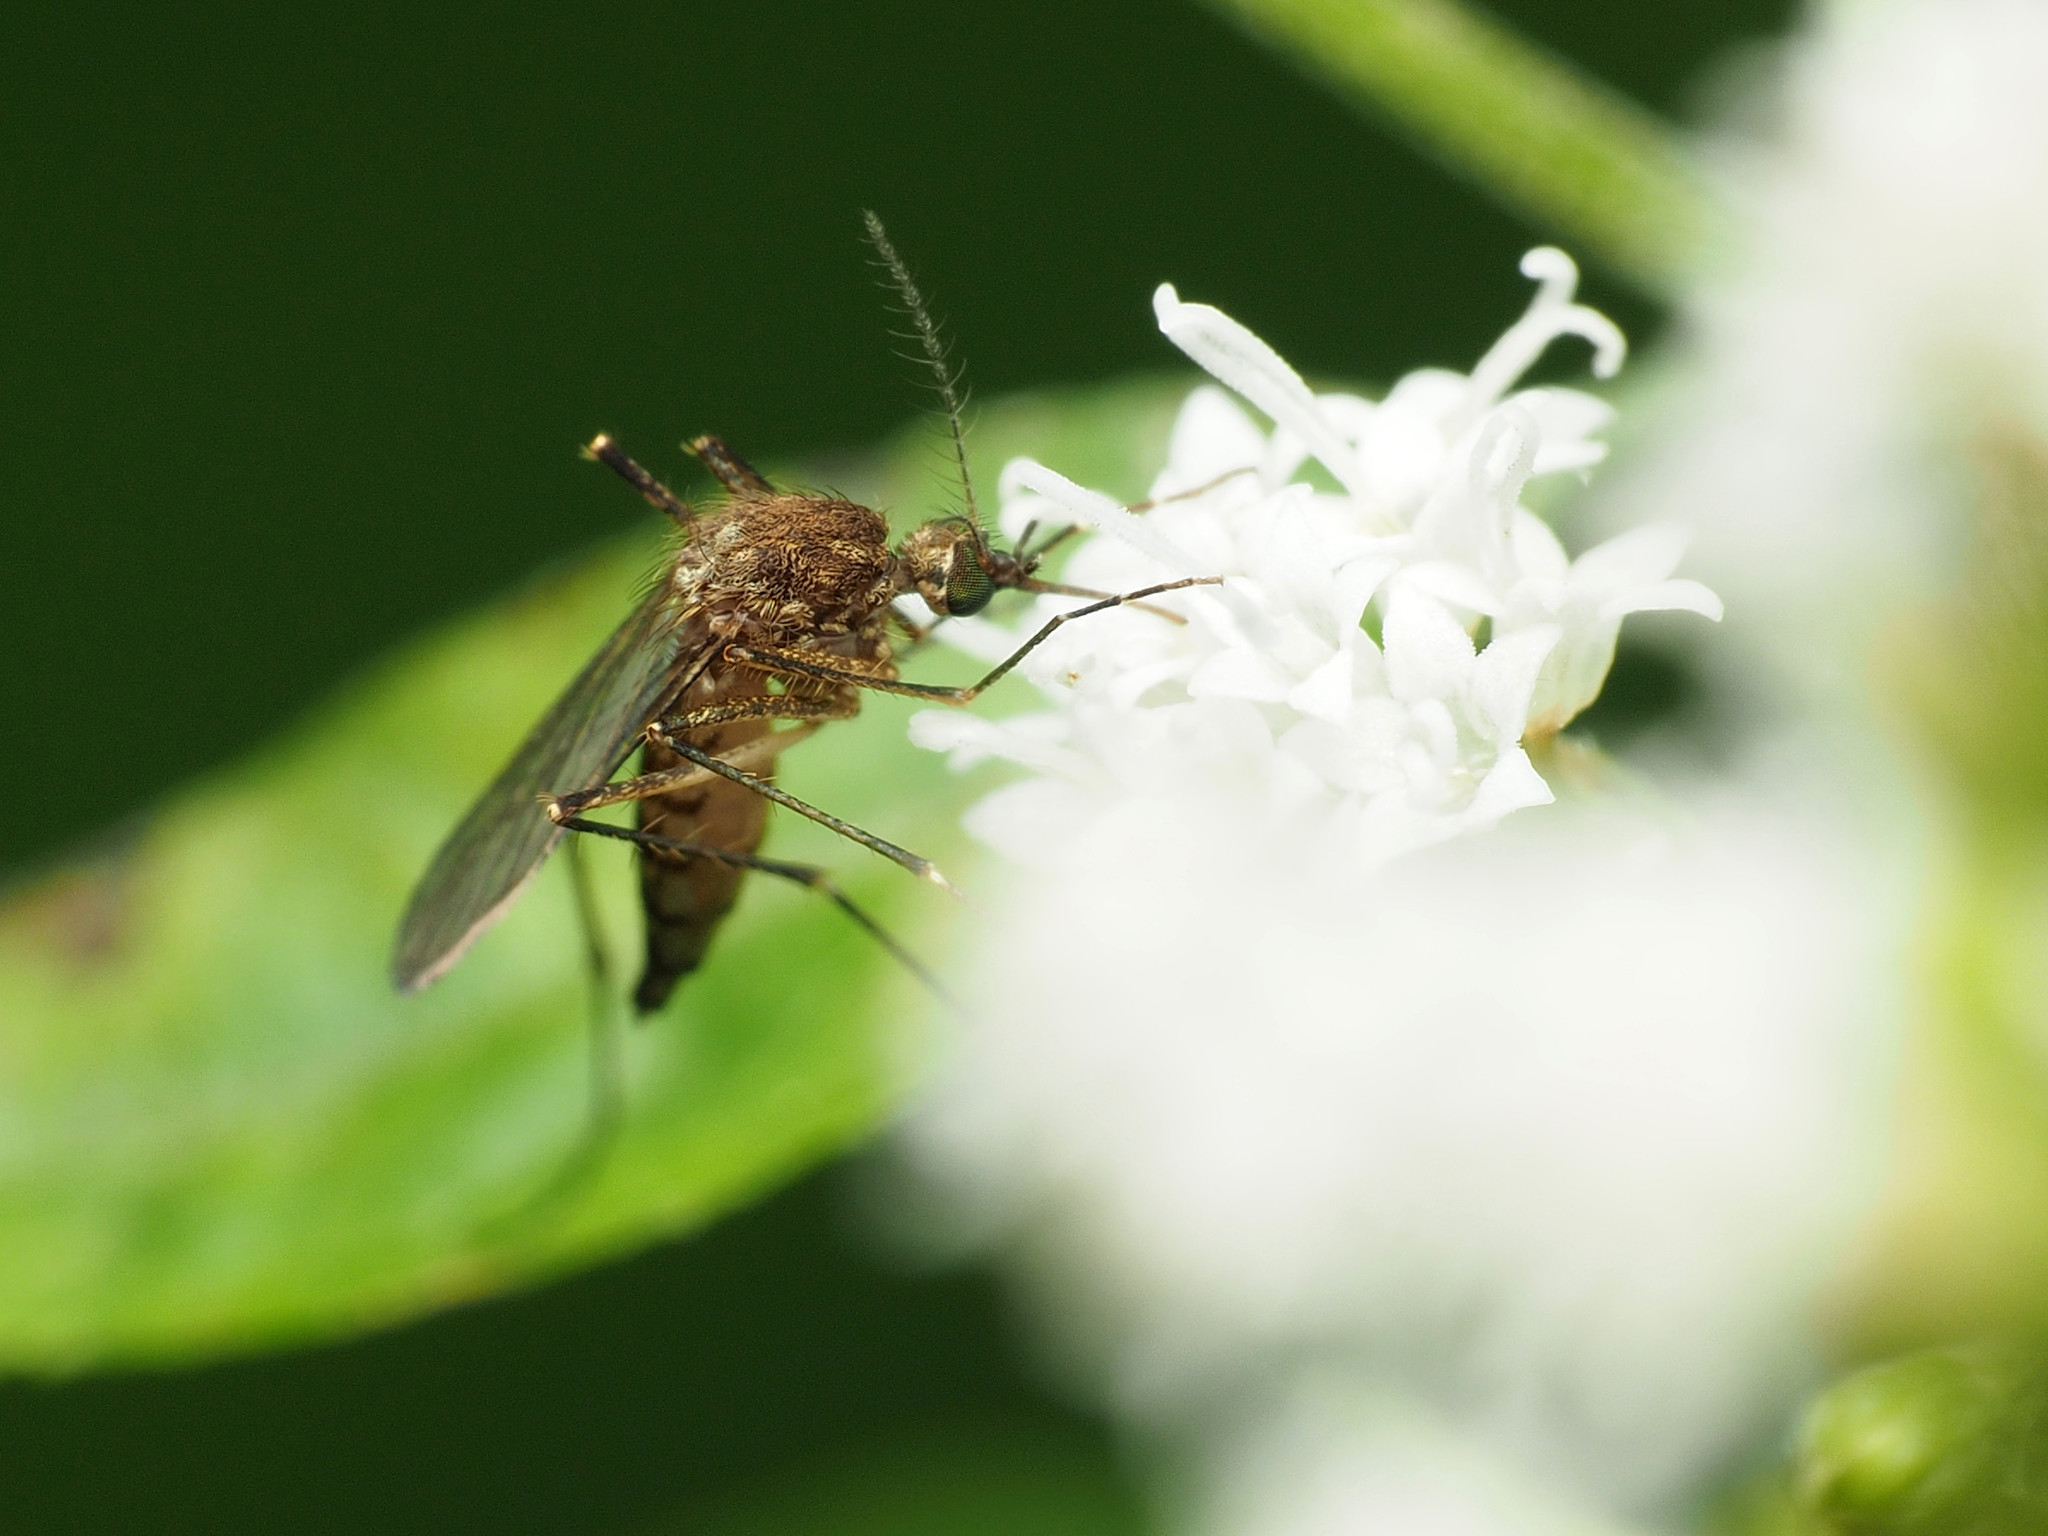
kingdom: Animalia
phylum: Arthropoda
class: Insecta
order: Diptera
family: Culicidae
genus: Aedes
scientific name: Aedes vexans
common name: Inland floodwater mosquito
